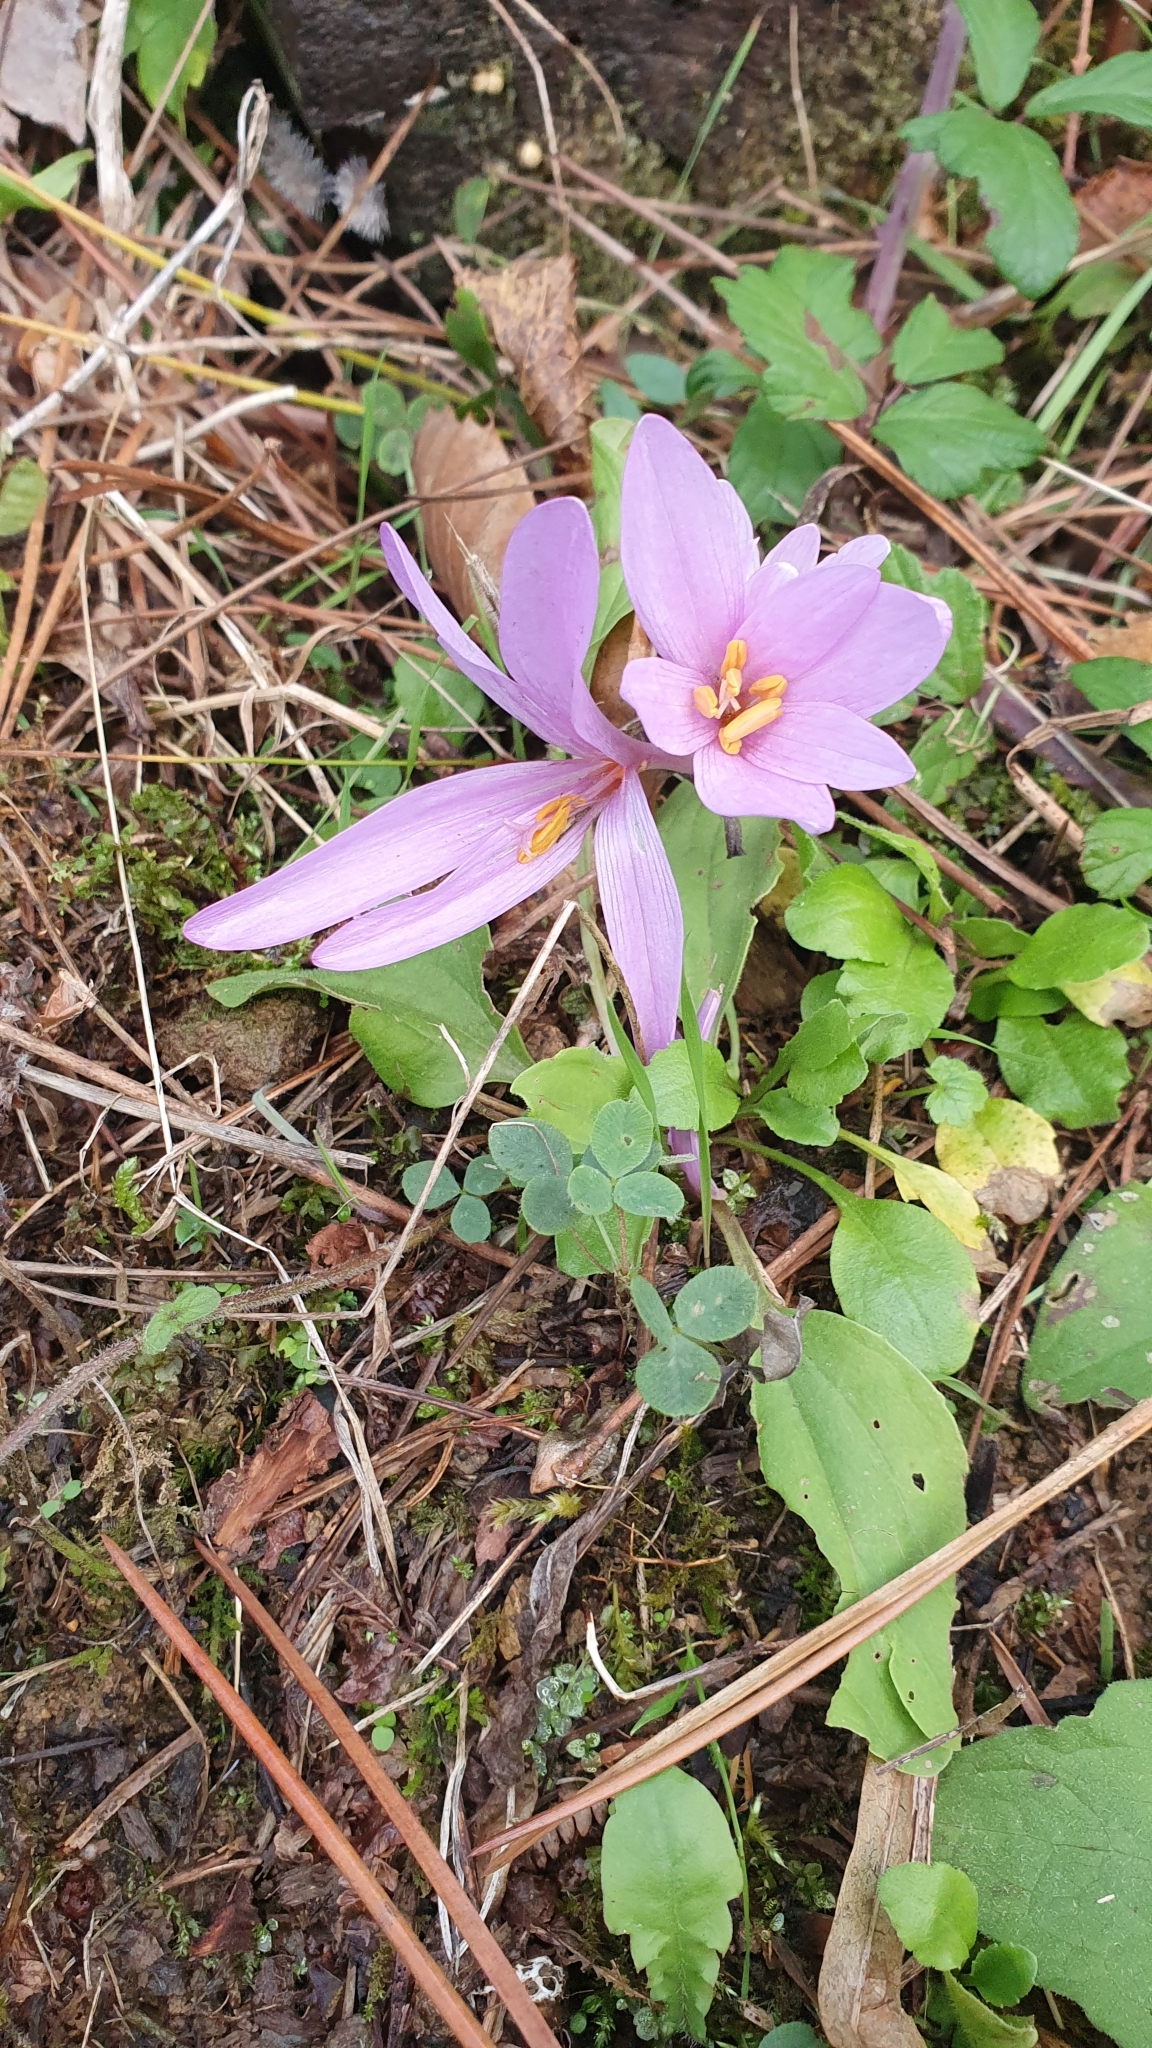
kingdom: Plantae
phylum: Tracheophyta
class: Liliopsida
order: Liliales
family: Colchicaceae
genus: Colchicum
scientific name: Colchicum longifolium
